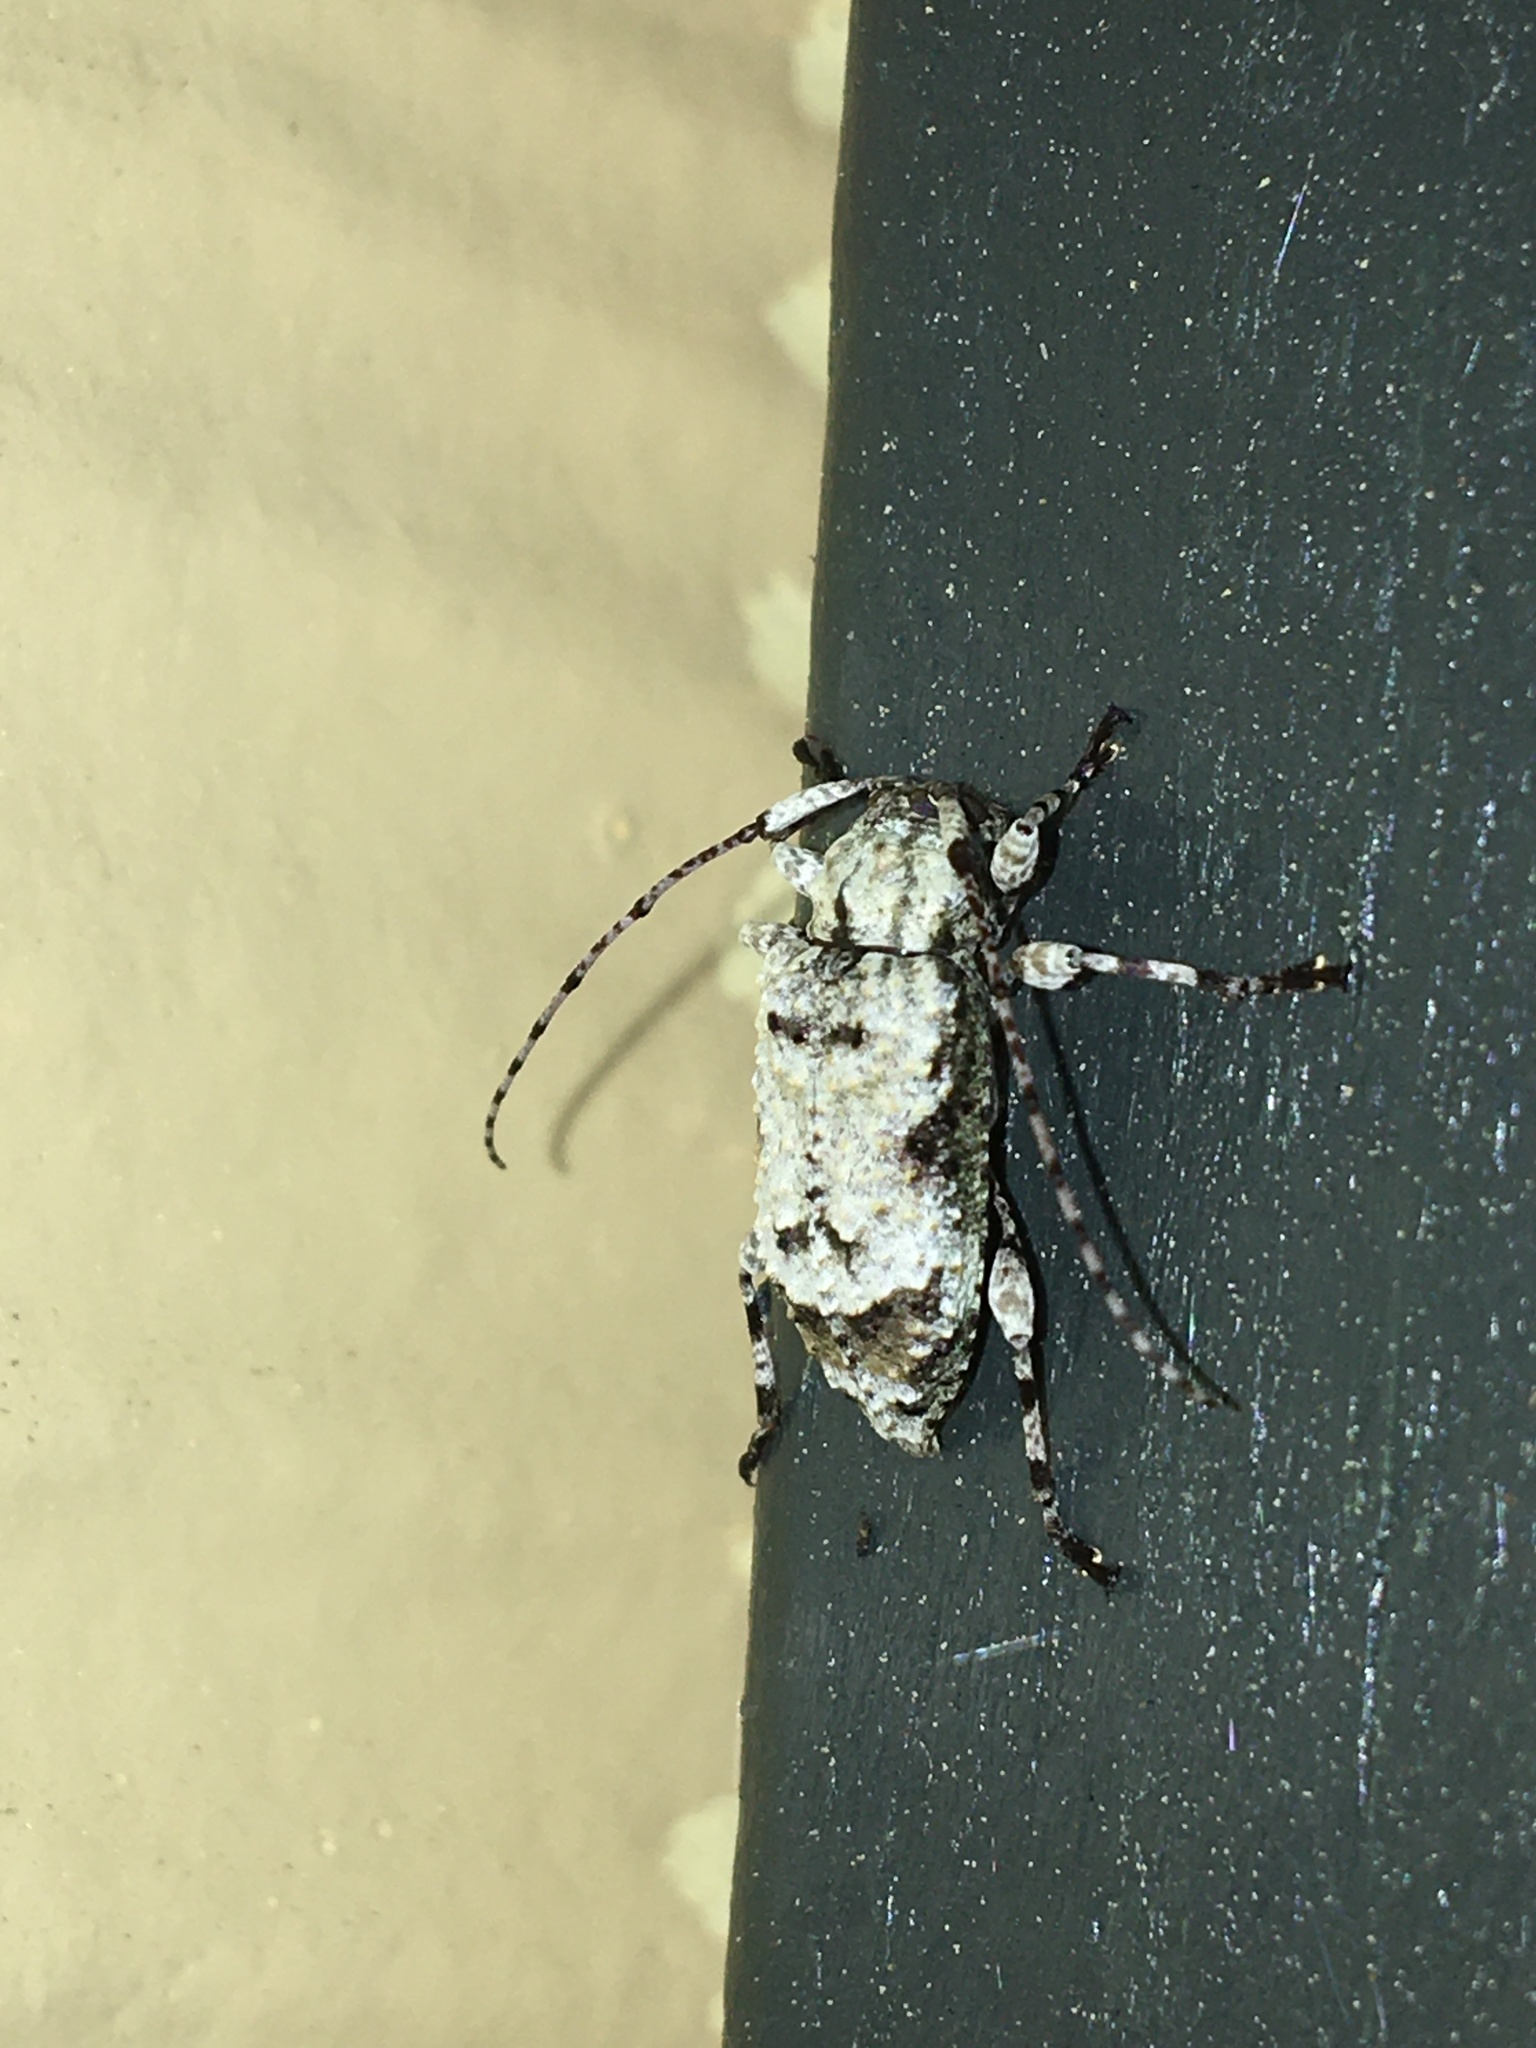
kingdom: Animalia
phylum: Arthropoda
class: Insecta
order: Coleoptera
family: Cerambycidae
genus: Leptostylus
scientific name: Leptostylus asperatus
